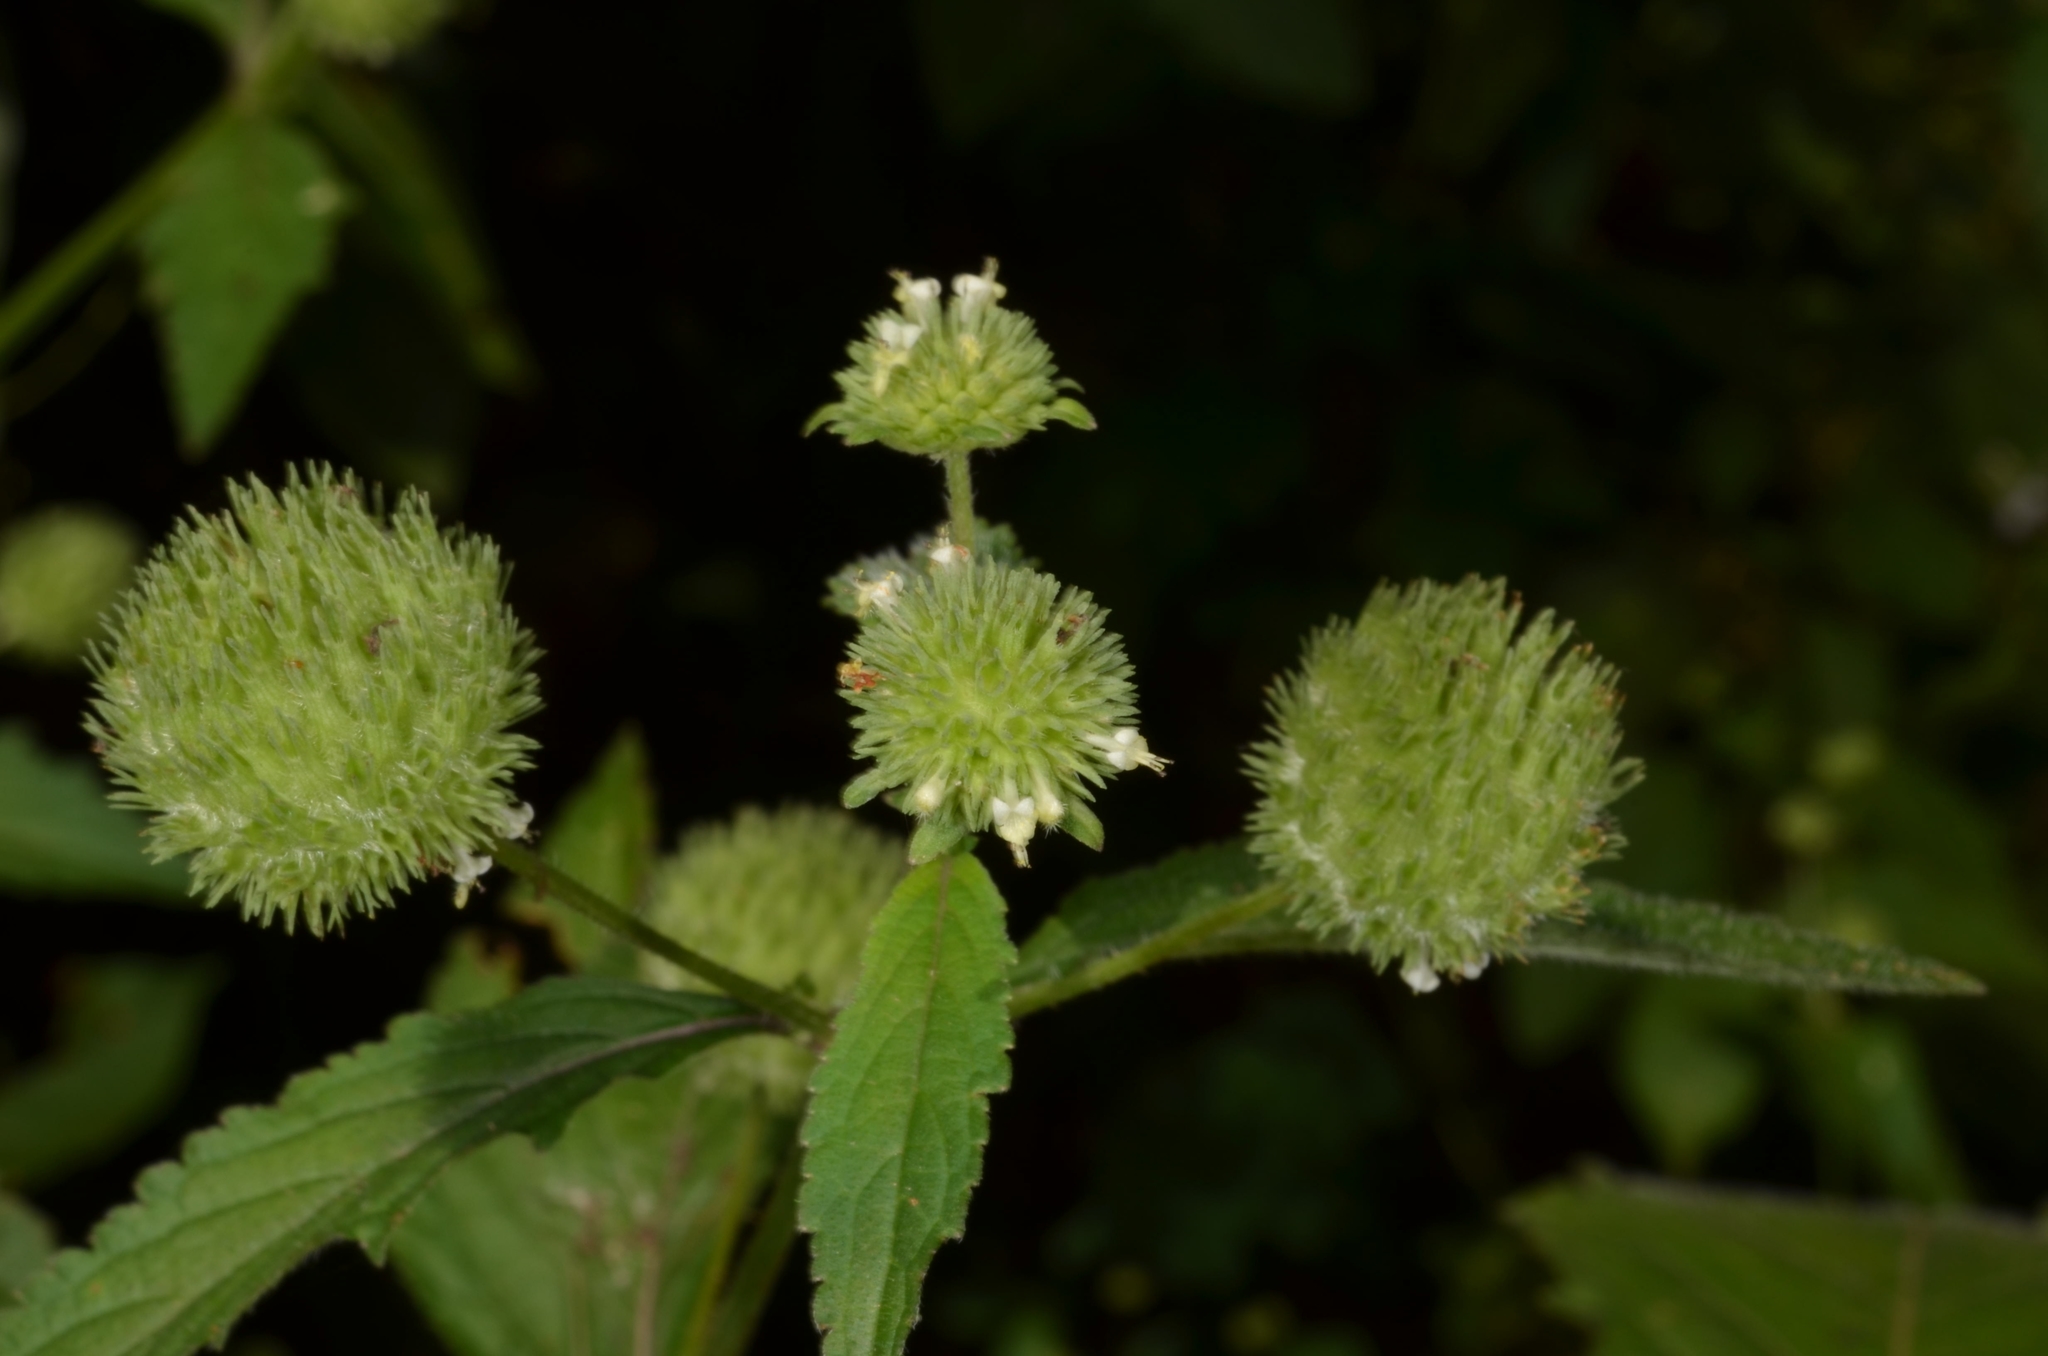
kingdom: Plantae
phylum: Tracheophyta
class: Magnoliopsida
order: Lamiales
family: Lamiaceae
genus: Hyptis
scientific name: Hyptis capitata
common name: False ironwort
